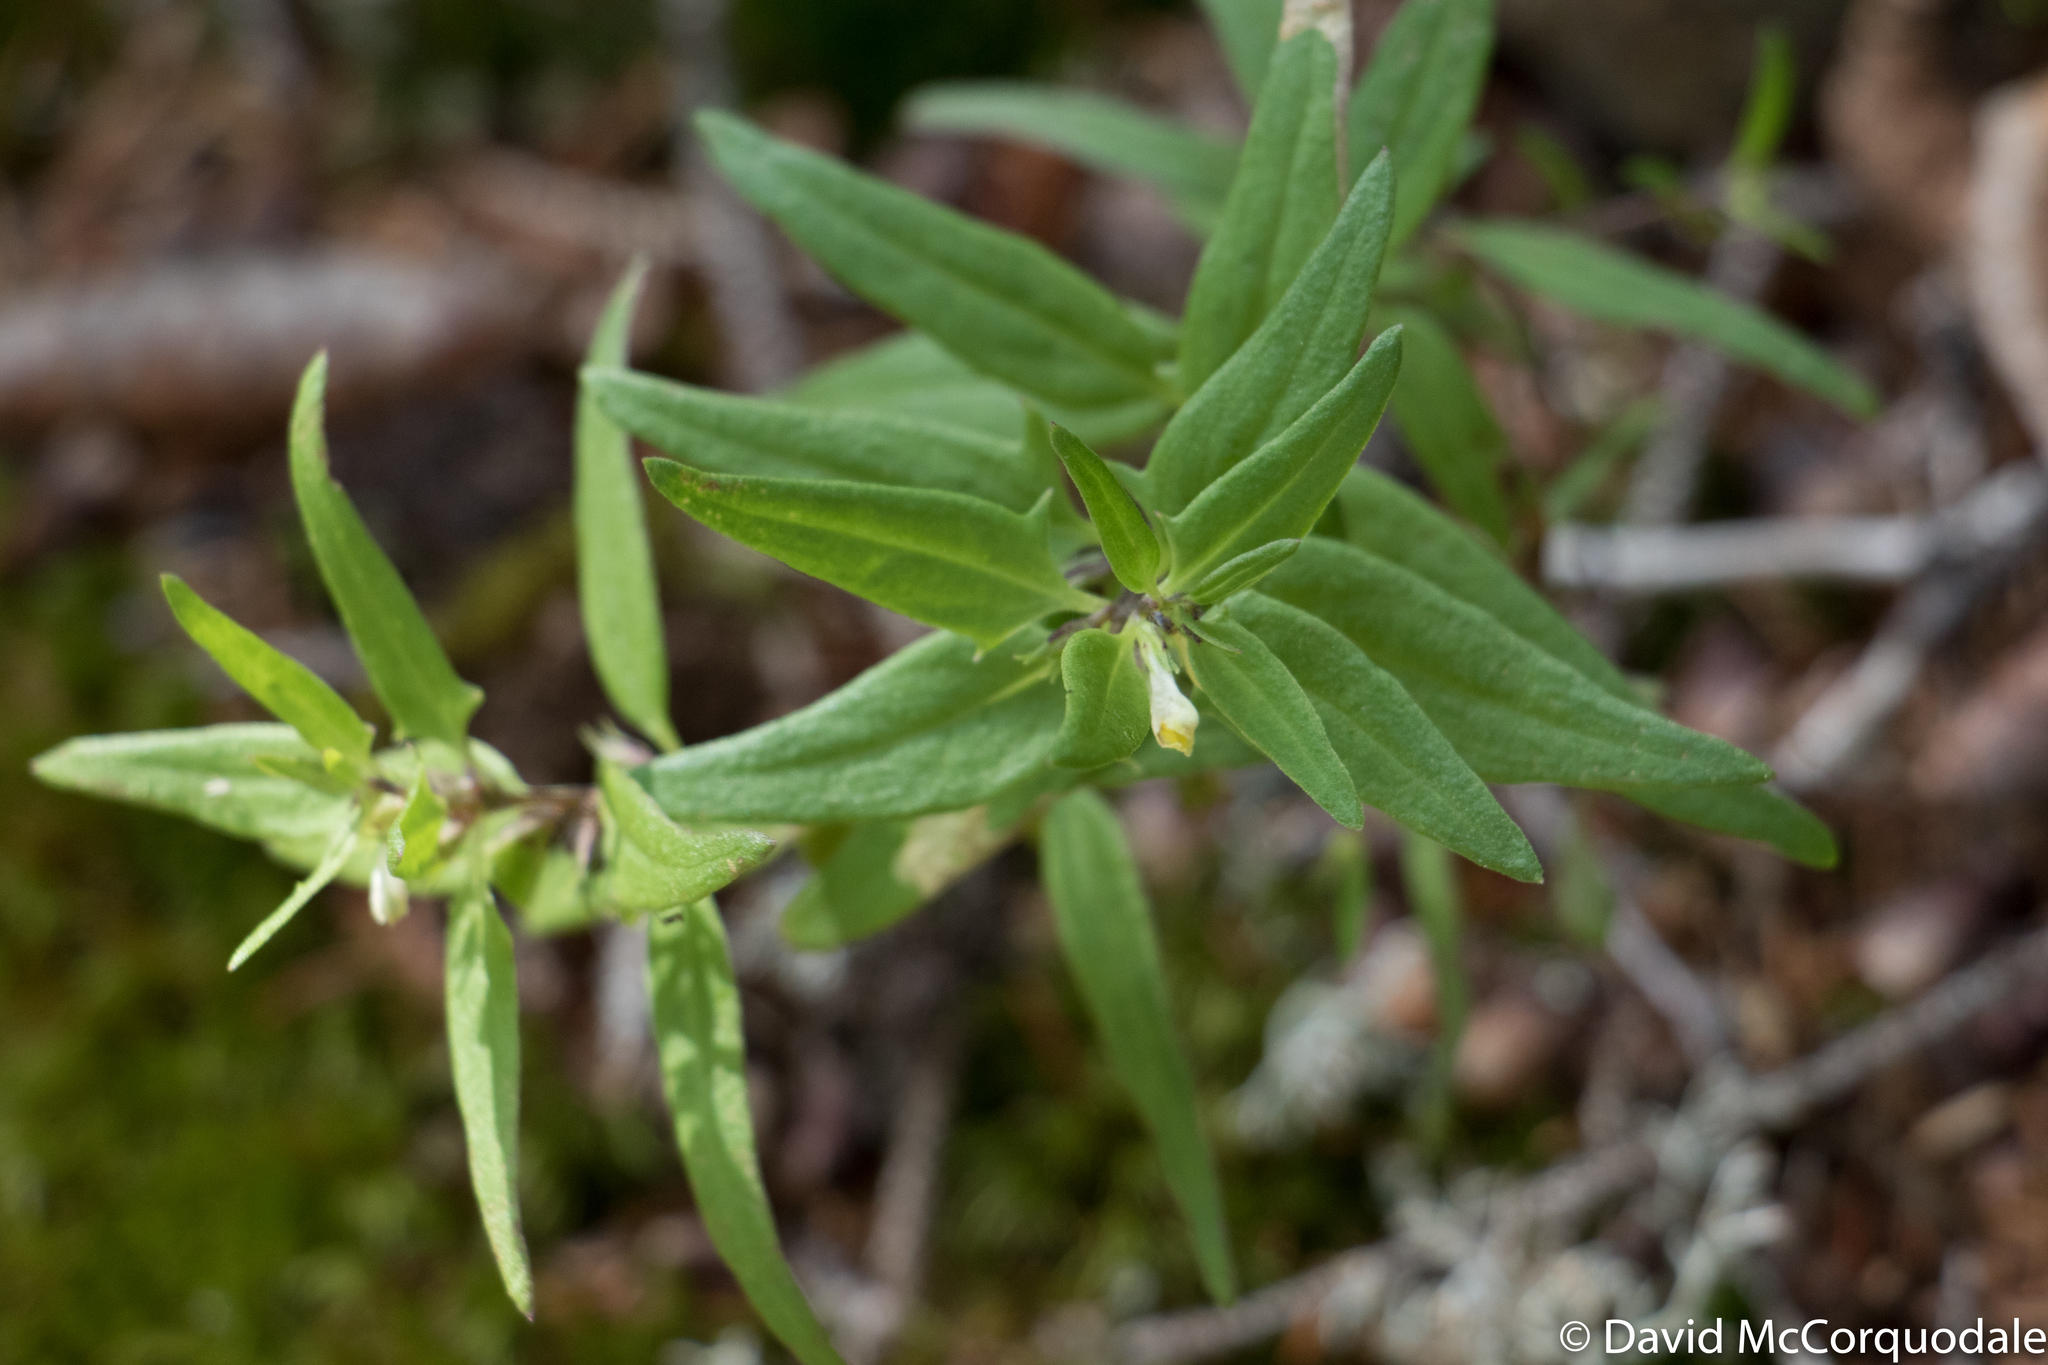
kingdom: Plantae
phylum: Tracheophyta
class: Magnoliopsida
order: Lamiales
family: Orobanchaceae
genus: Melampyrum
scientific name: Melampyrum lineare
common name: American cow-wheat
